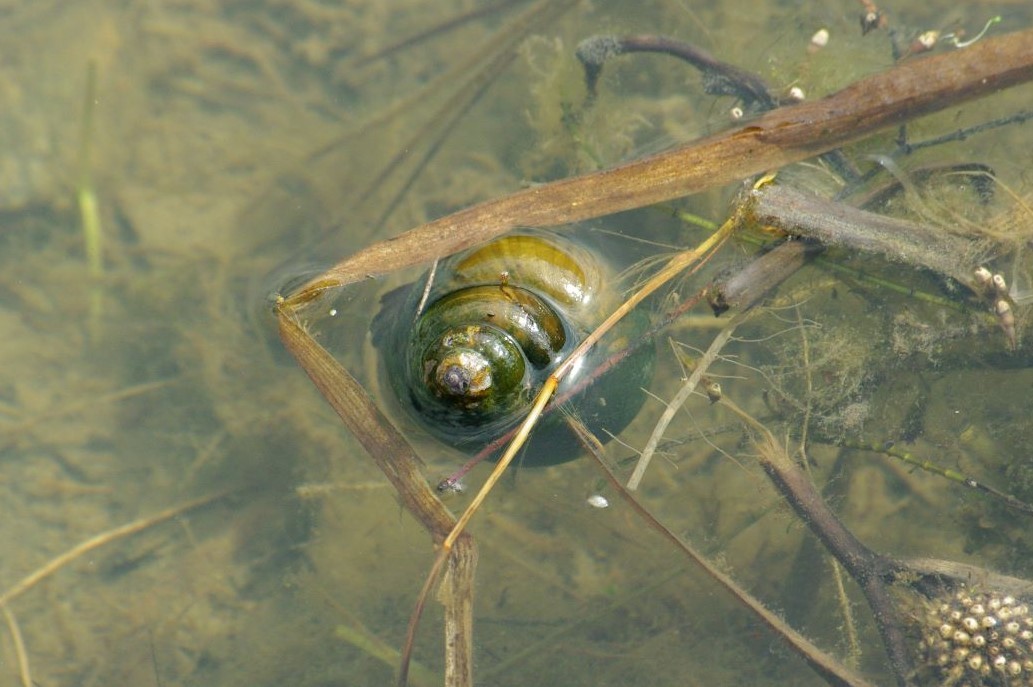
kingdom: Animalia
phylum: Mollusca
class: Gastropoda
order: Architaenioglossa
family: Viviparidae
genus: Cipangopaludina
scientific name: Cipangopaludina chinensis
